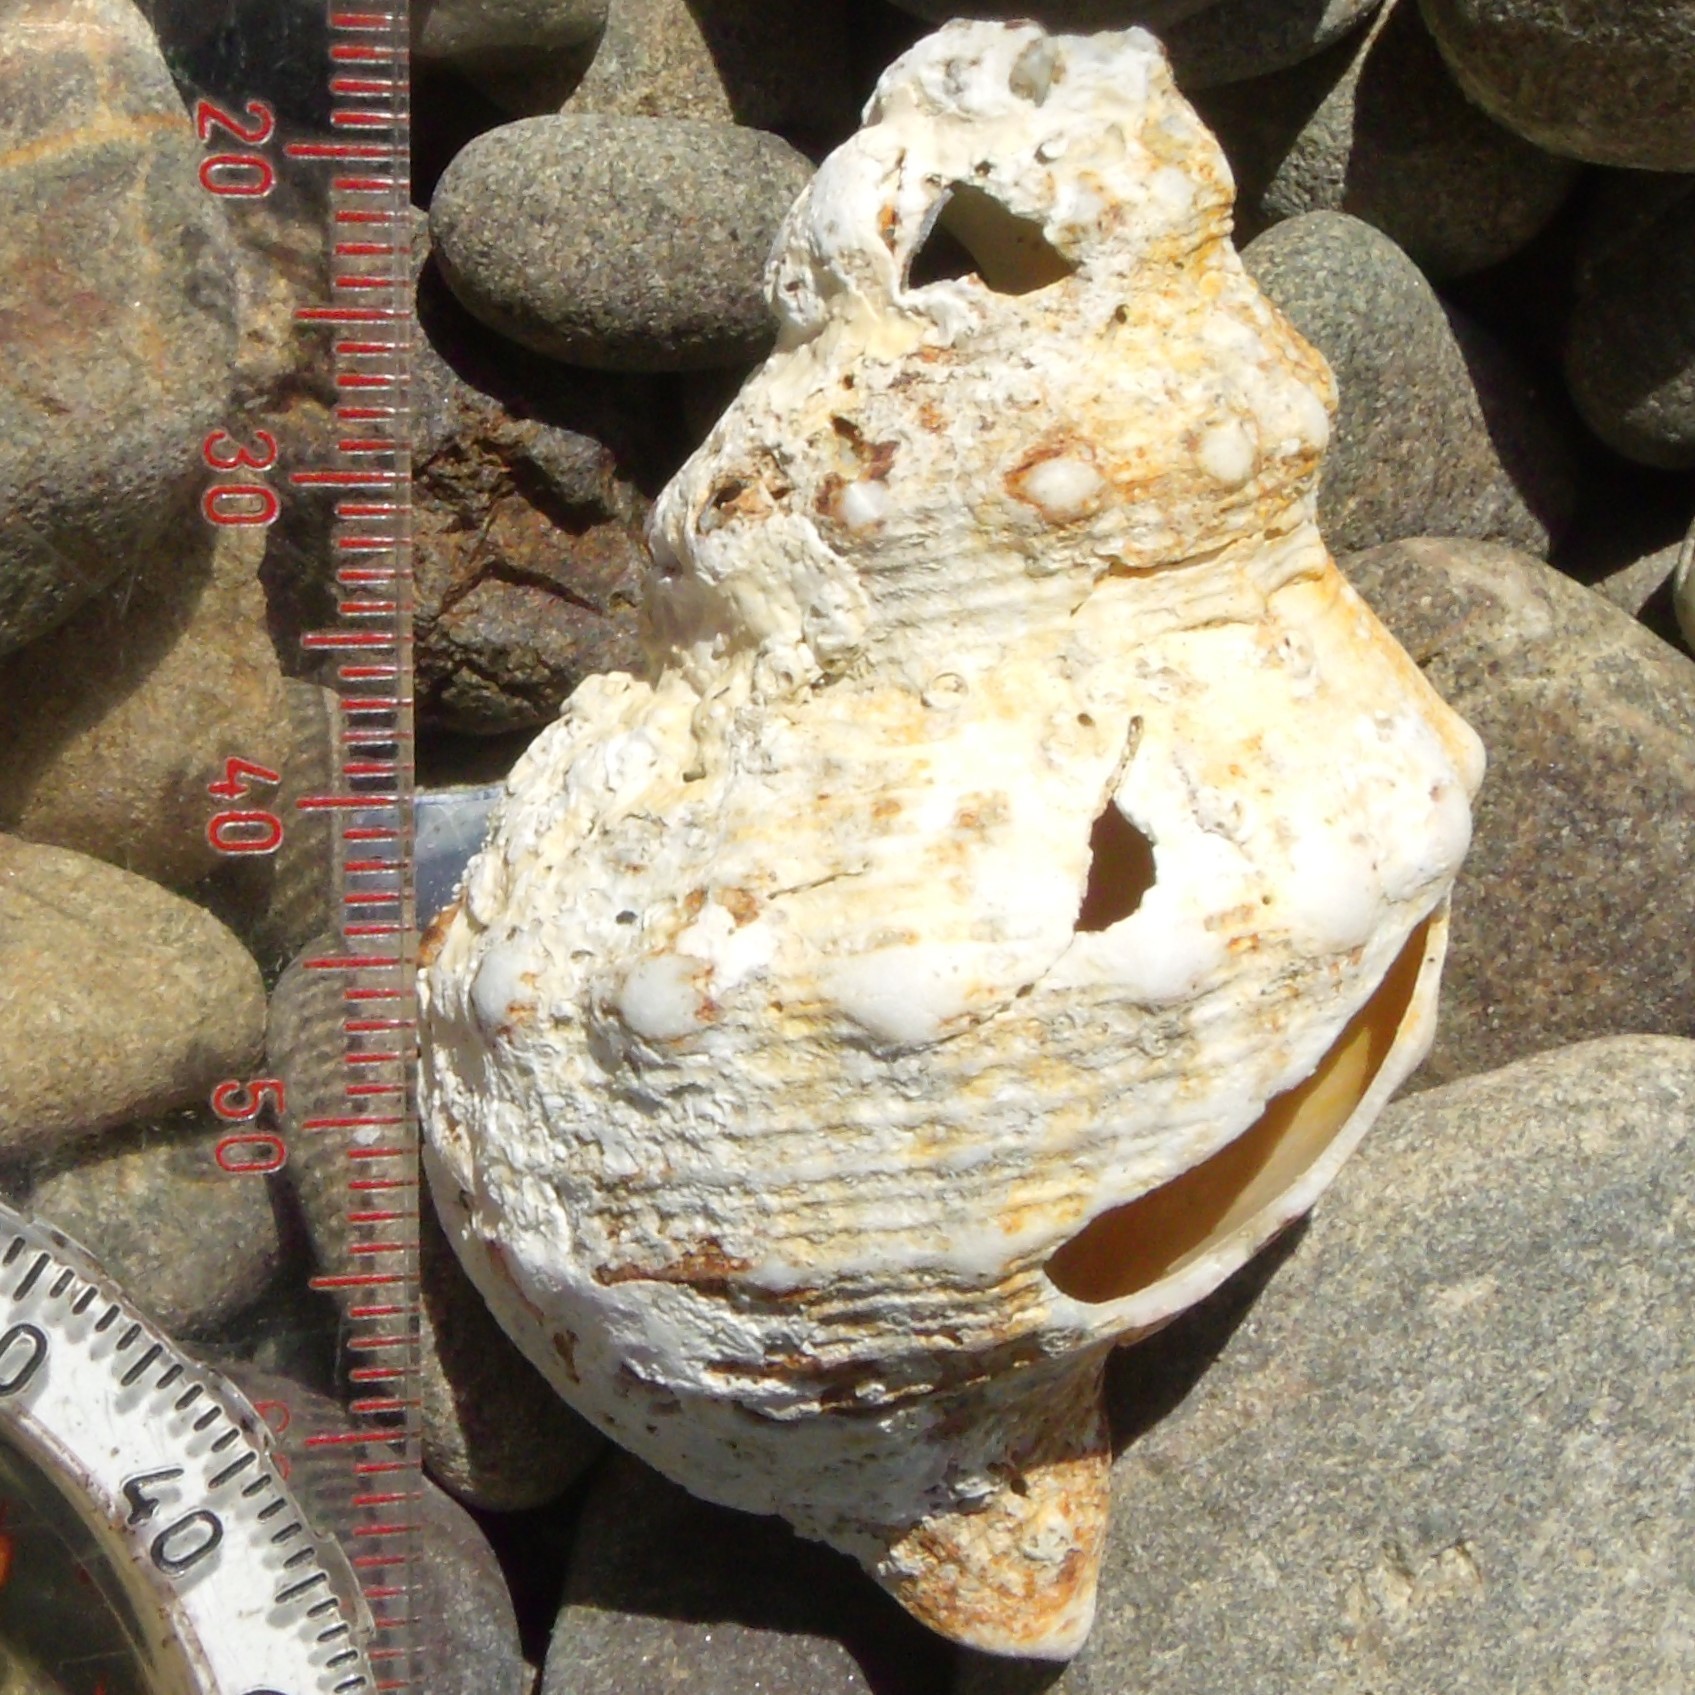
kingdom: Animalia
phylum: Mollusca
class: Gastropoda
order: Neogastropoda
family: Prosiphonidae
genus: Austrofusus
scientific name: Austrofusus glans
